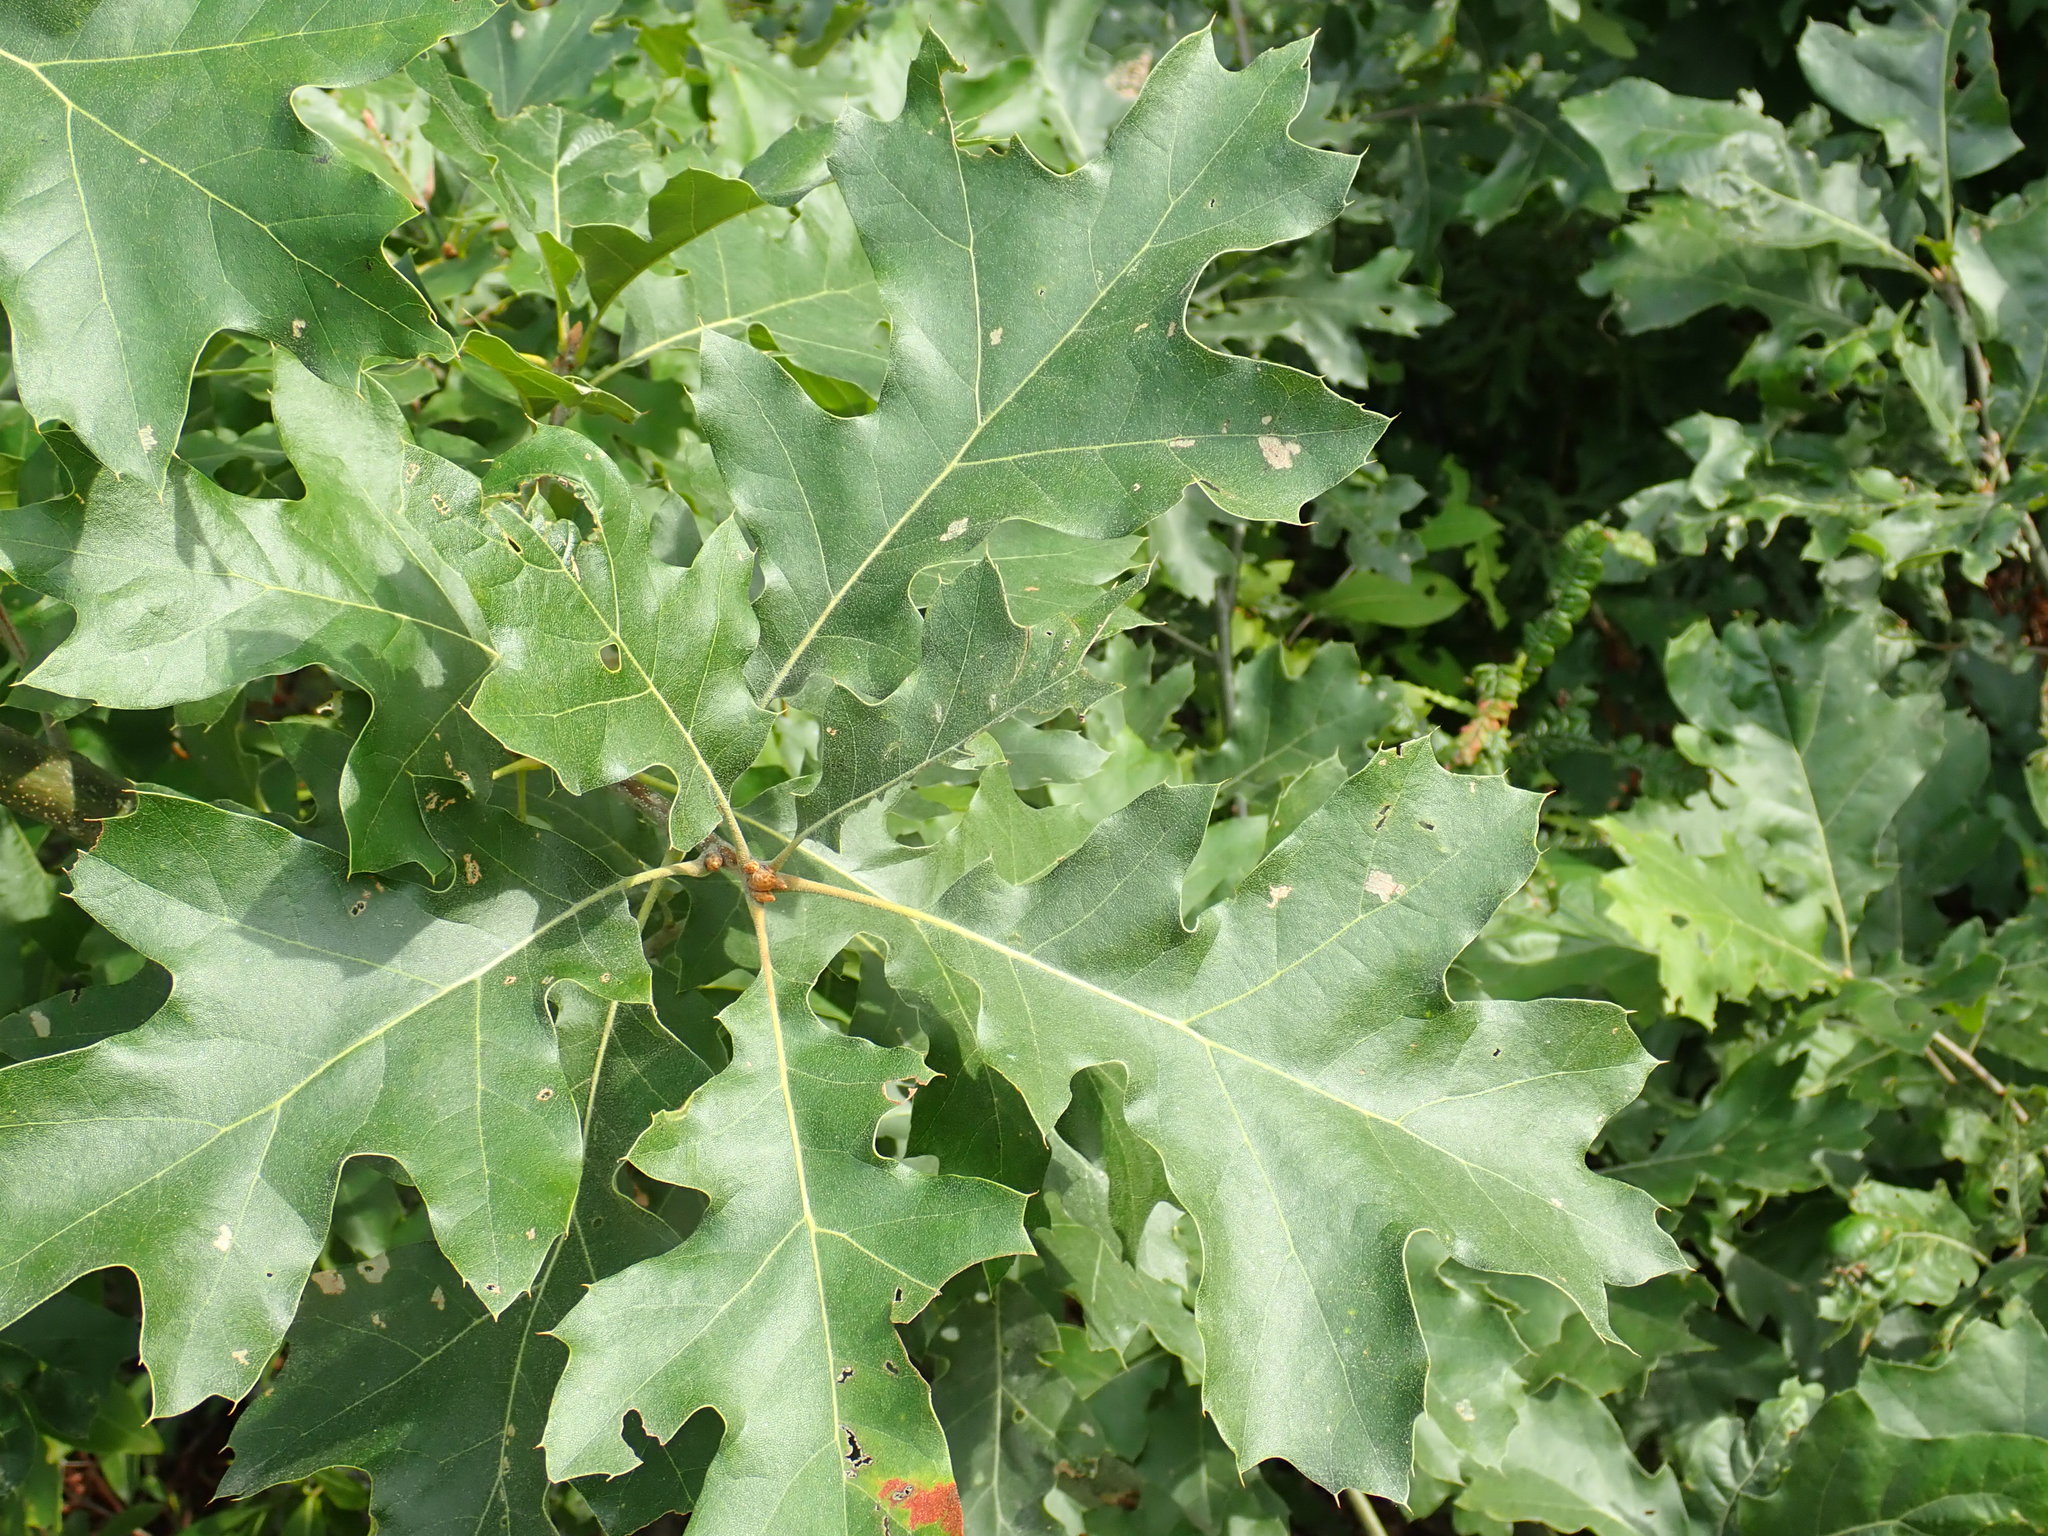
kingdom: Plantae
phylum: Tracheophyta
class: Magnoliopsida
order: Fagales
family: Fagaceae
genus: Quercus
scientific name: Quercus velutina
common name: Black oak
